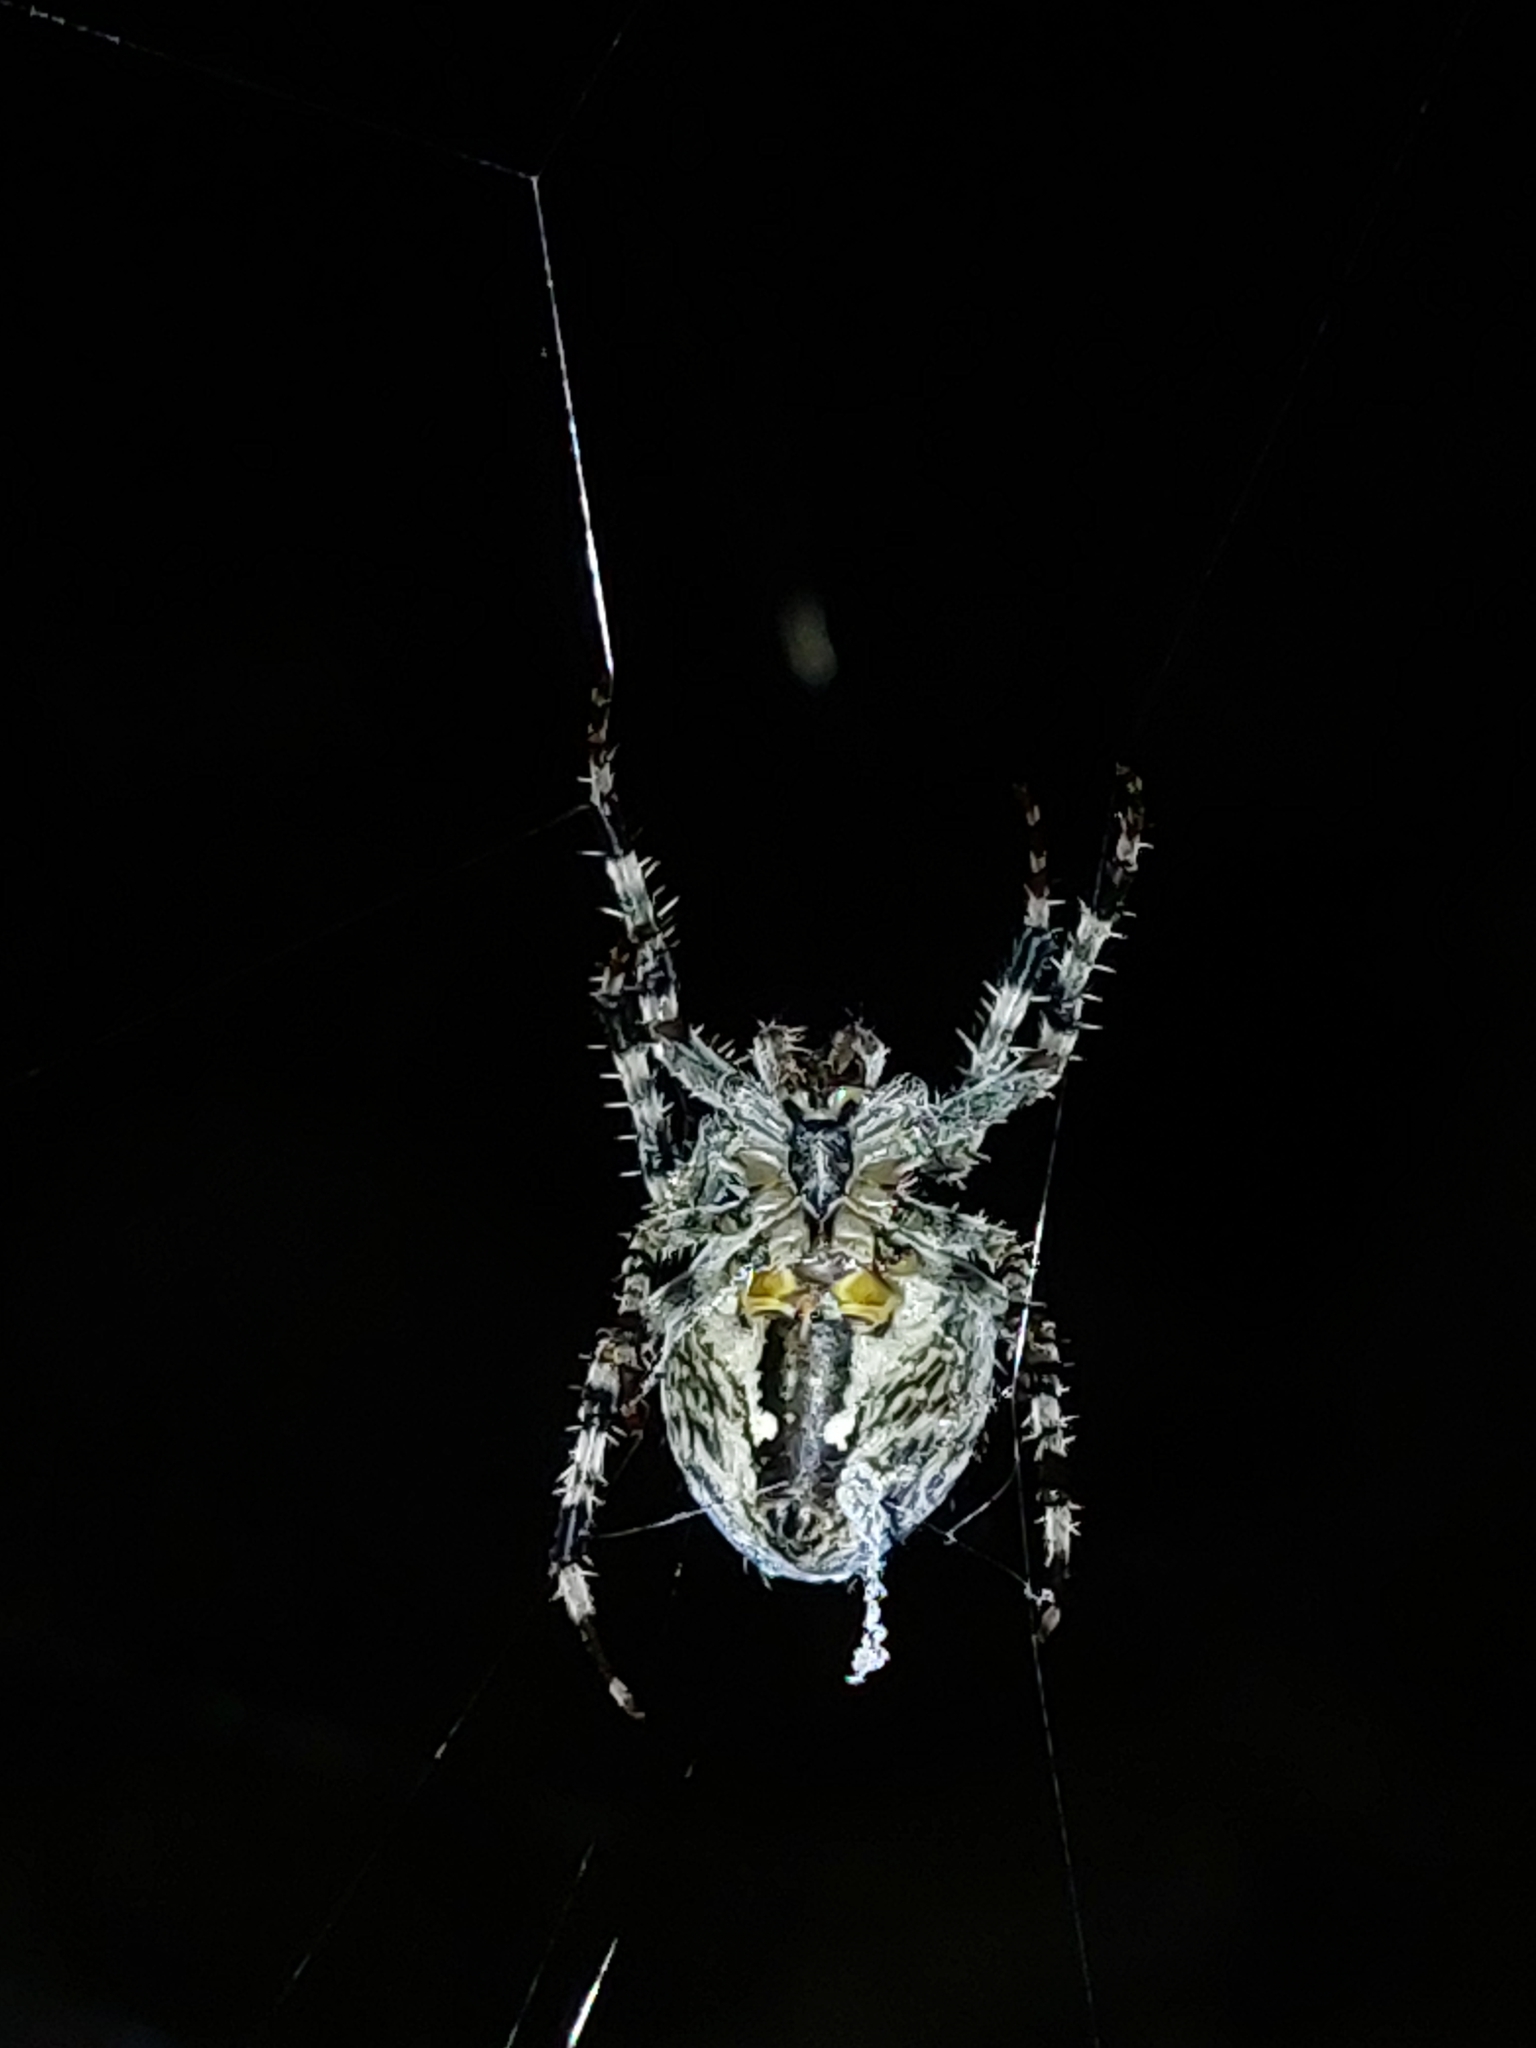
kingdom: Animalia
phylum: Arthropoda
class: Arachnida
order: Araneae
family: Araneidae
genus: Araneus
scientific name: Araneus diadematus
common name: Cross orbweaver
